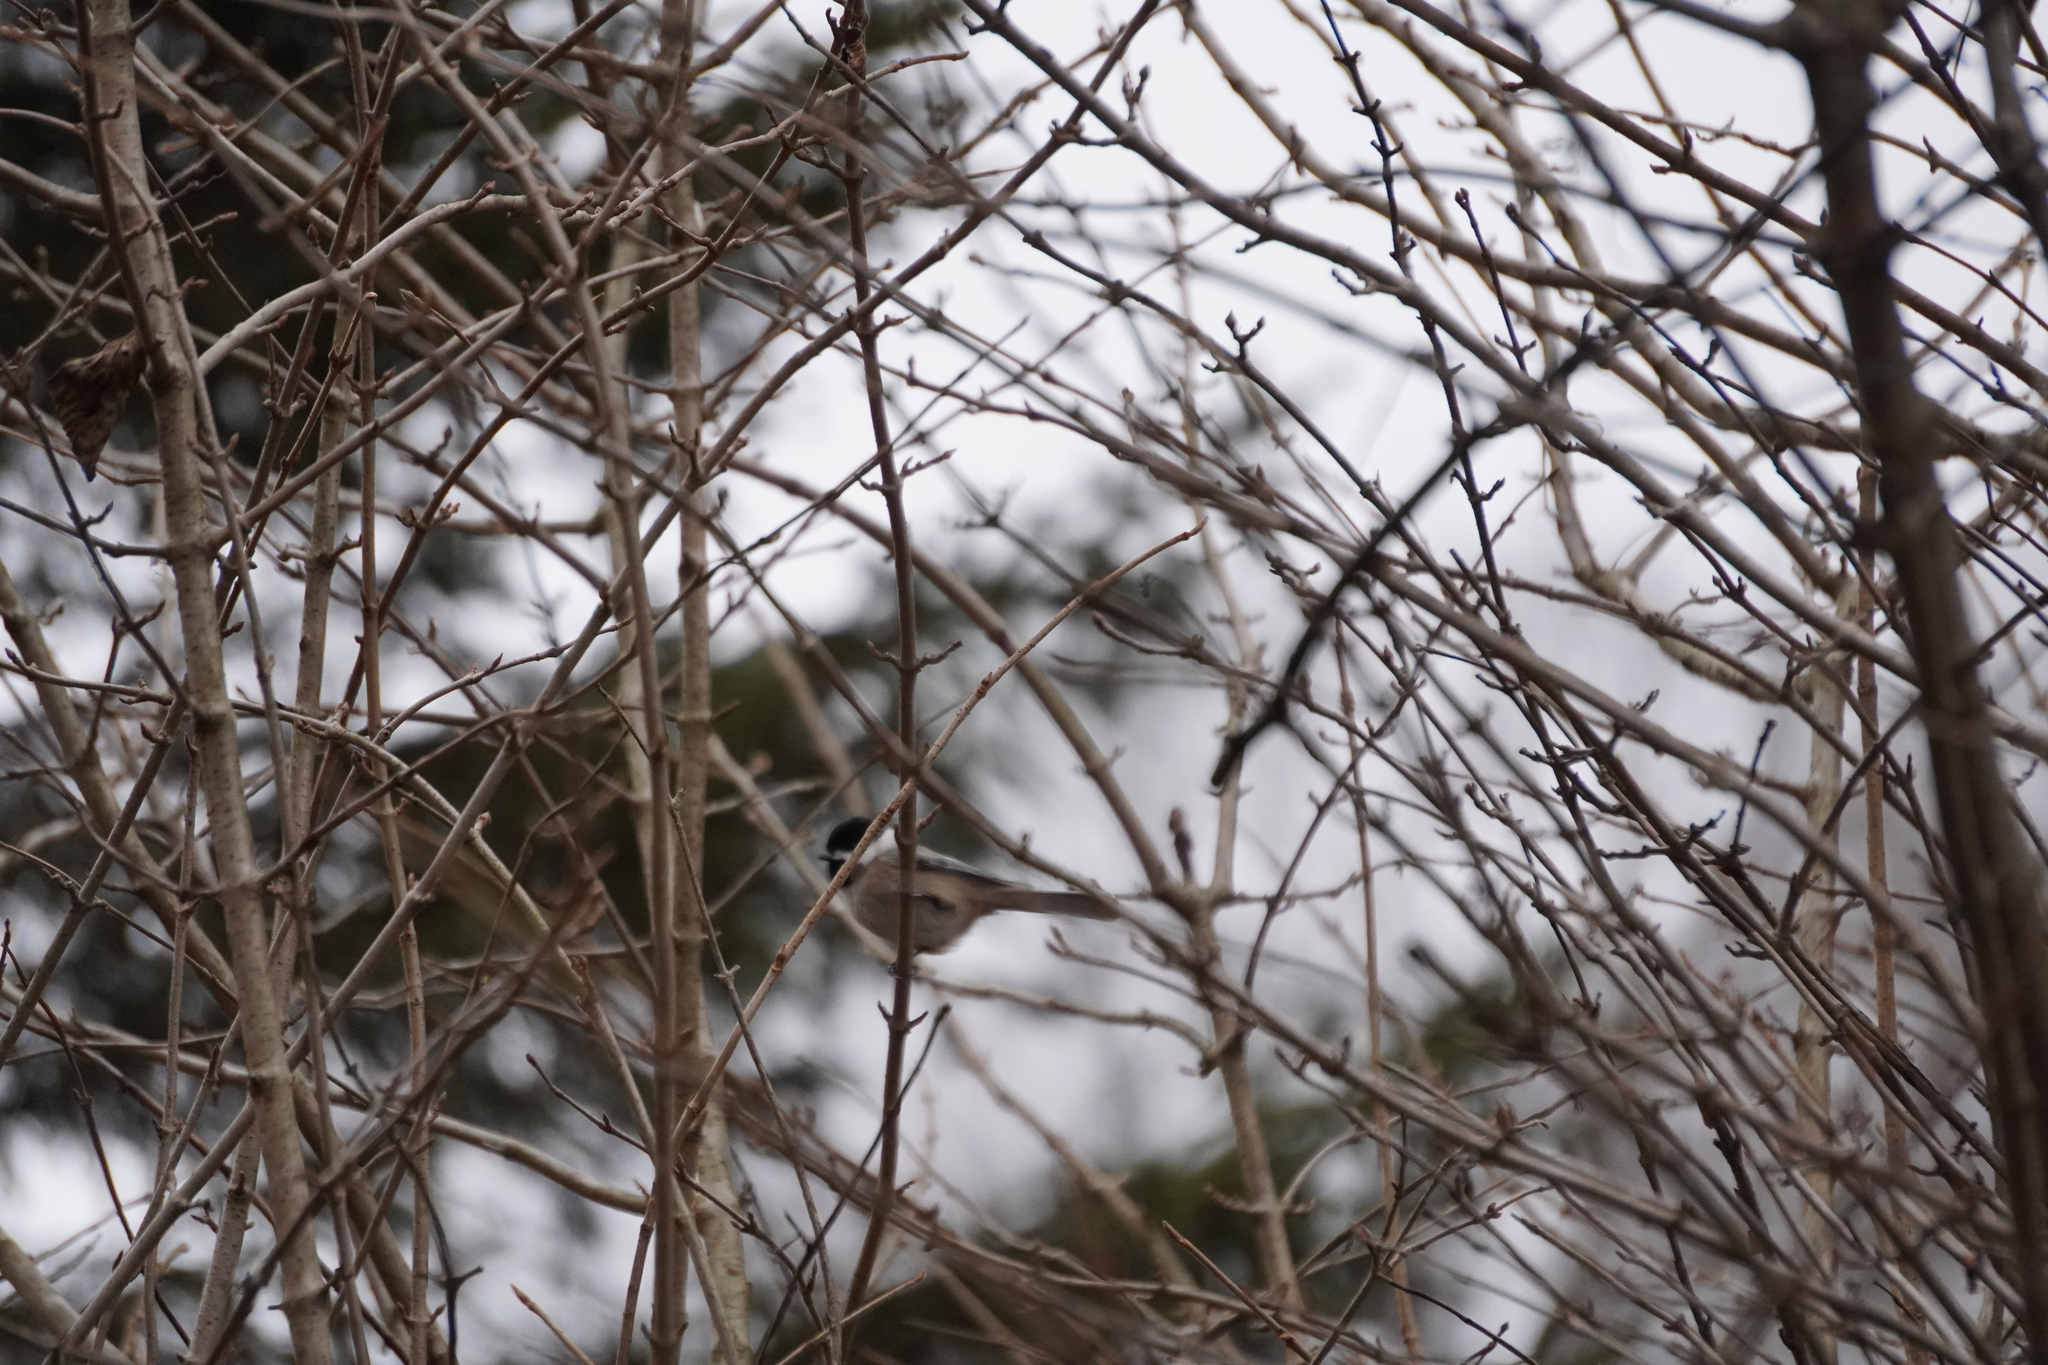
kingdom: Animalia
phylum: Chordata
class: Aves
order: Passeriformes
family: Paridae
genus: Poecile
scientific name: Poecile
